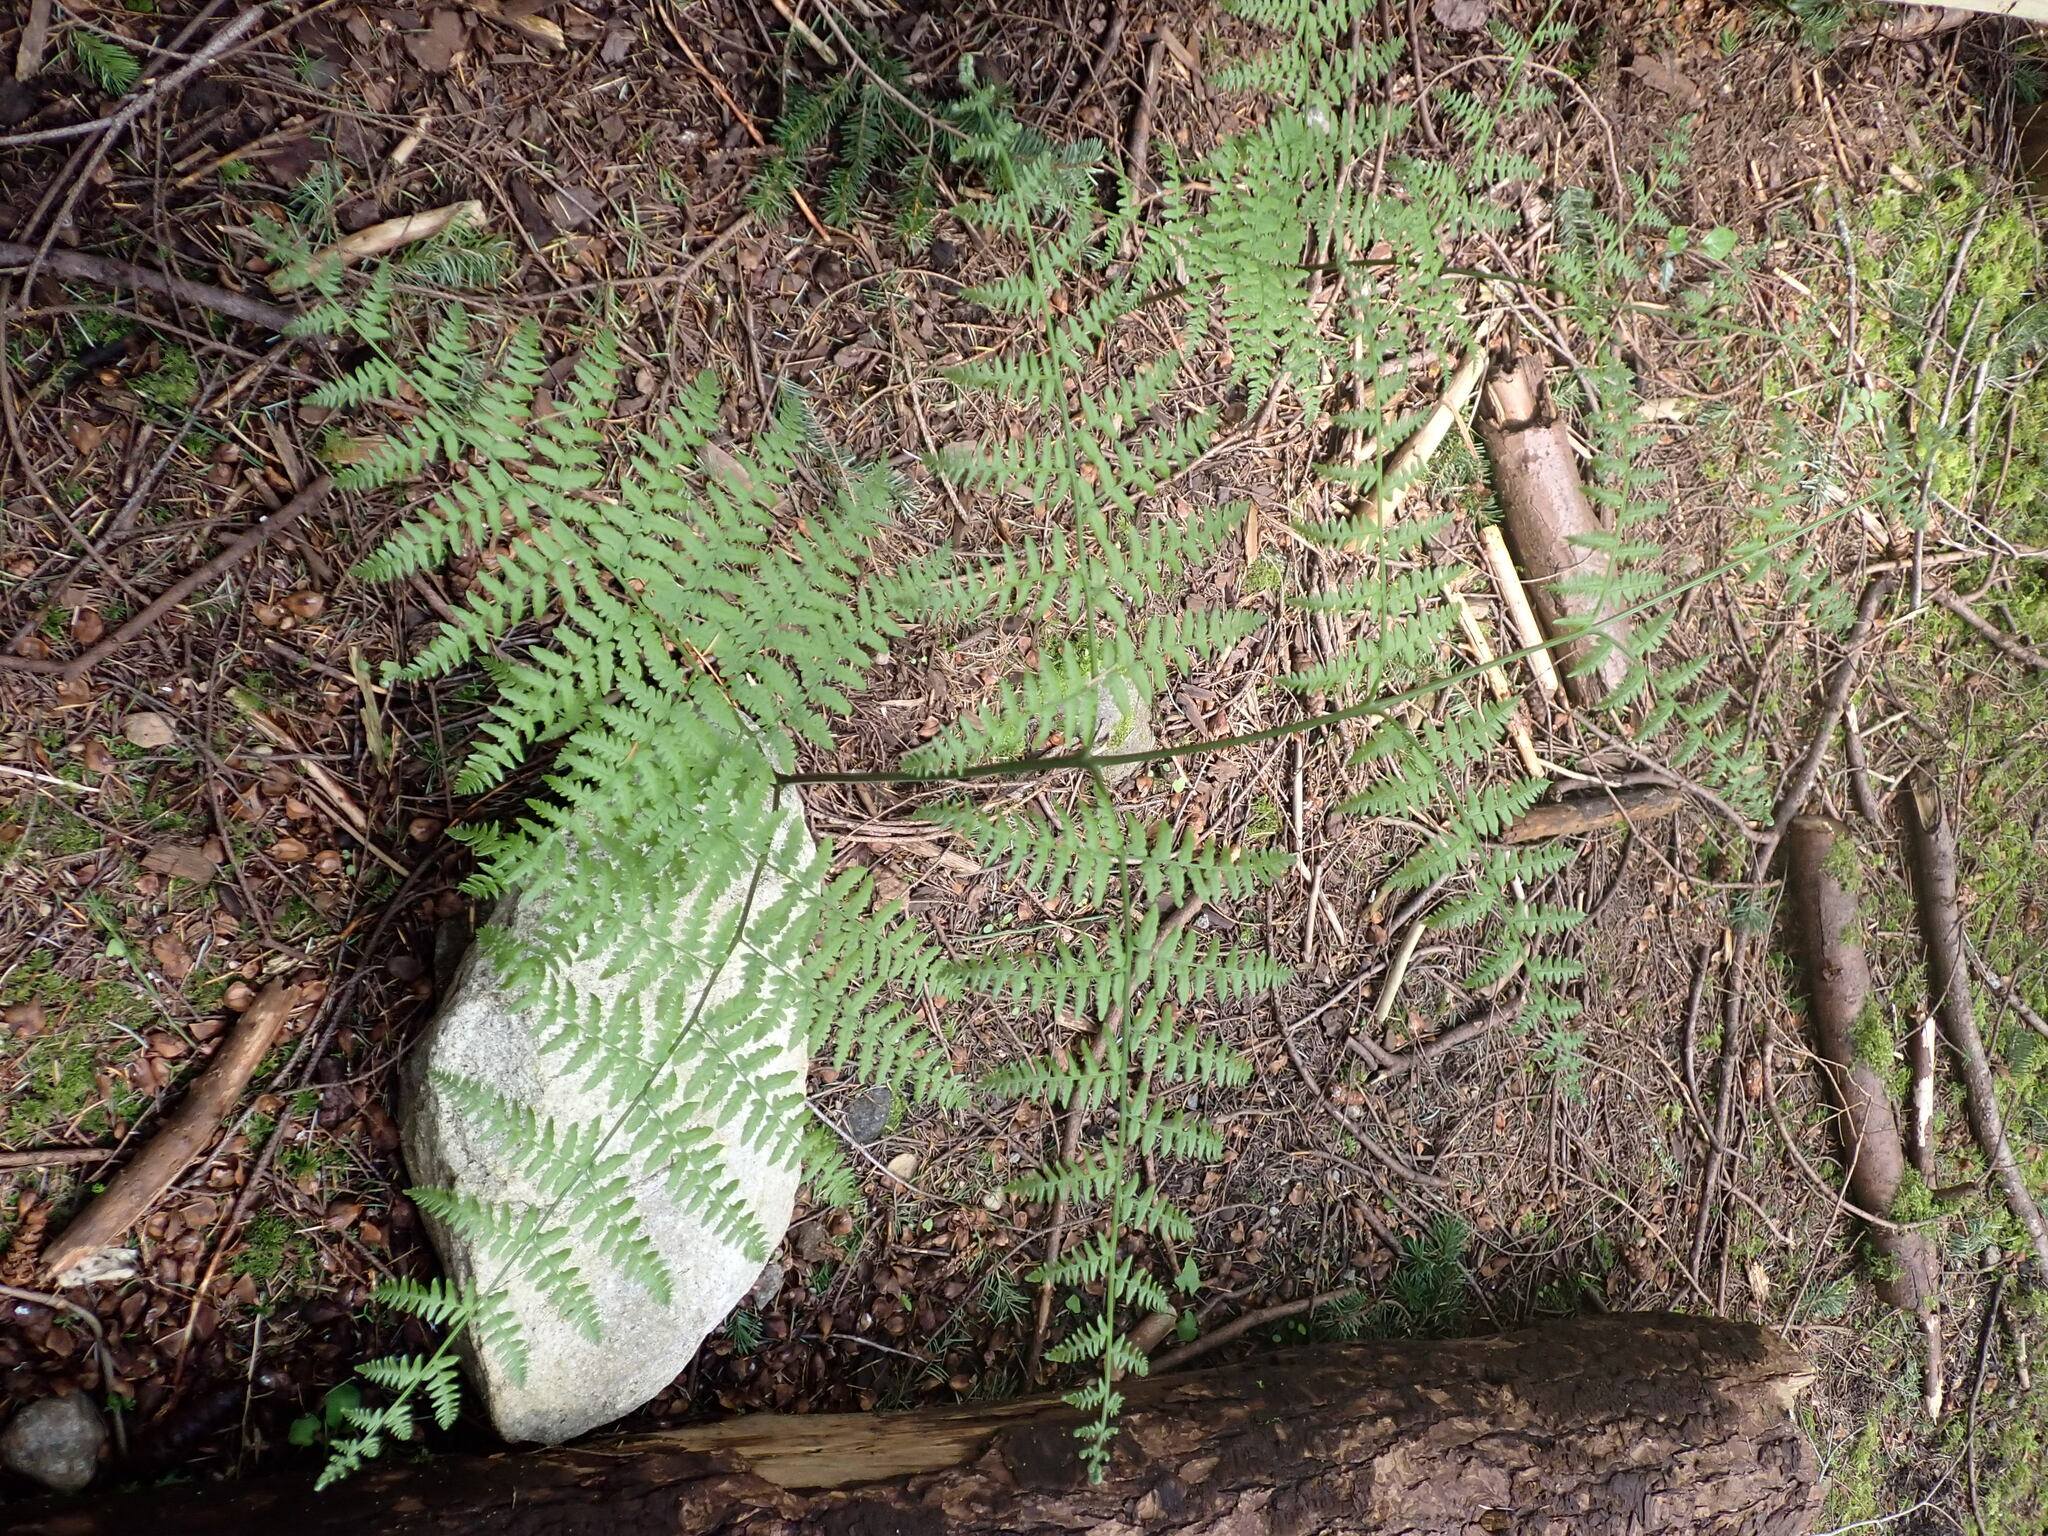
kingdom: Plantae
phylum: Tracheophyta
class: Polypodiopsida
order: Polypodiales
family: Dennstaedtiaceae
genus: Pteridium
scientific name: Pteridium aquilinum
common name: Bracken
